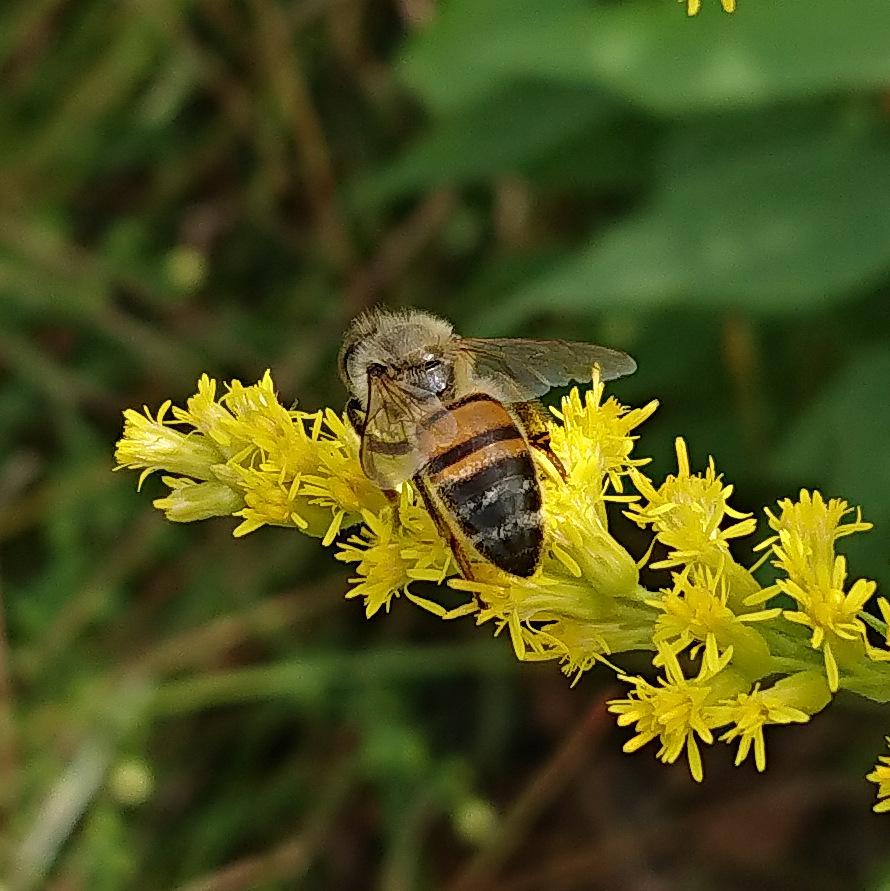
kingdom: Animalia
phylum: Arthropoda
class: Insecta
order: Hymenoptera
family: Apidae
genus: Apis
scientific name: Apis mellifera
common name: Honey bee
